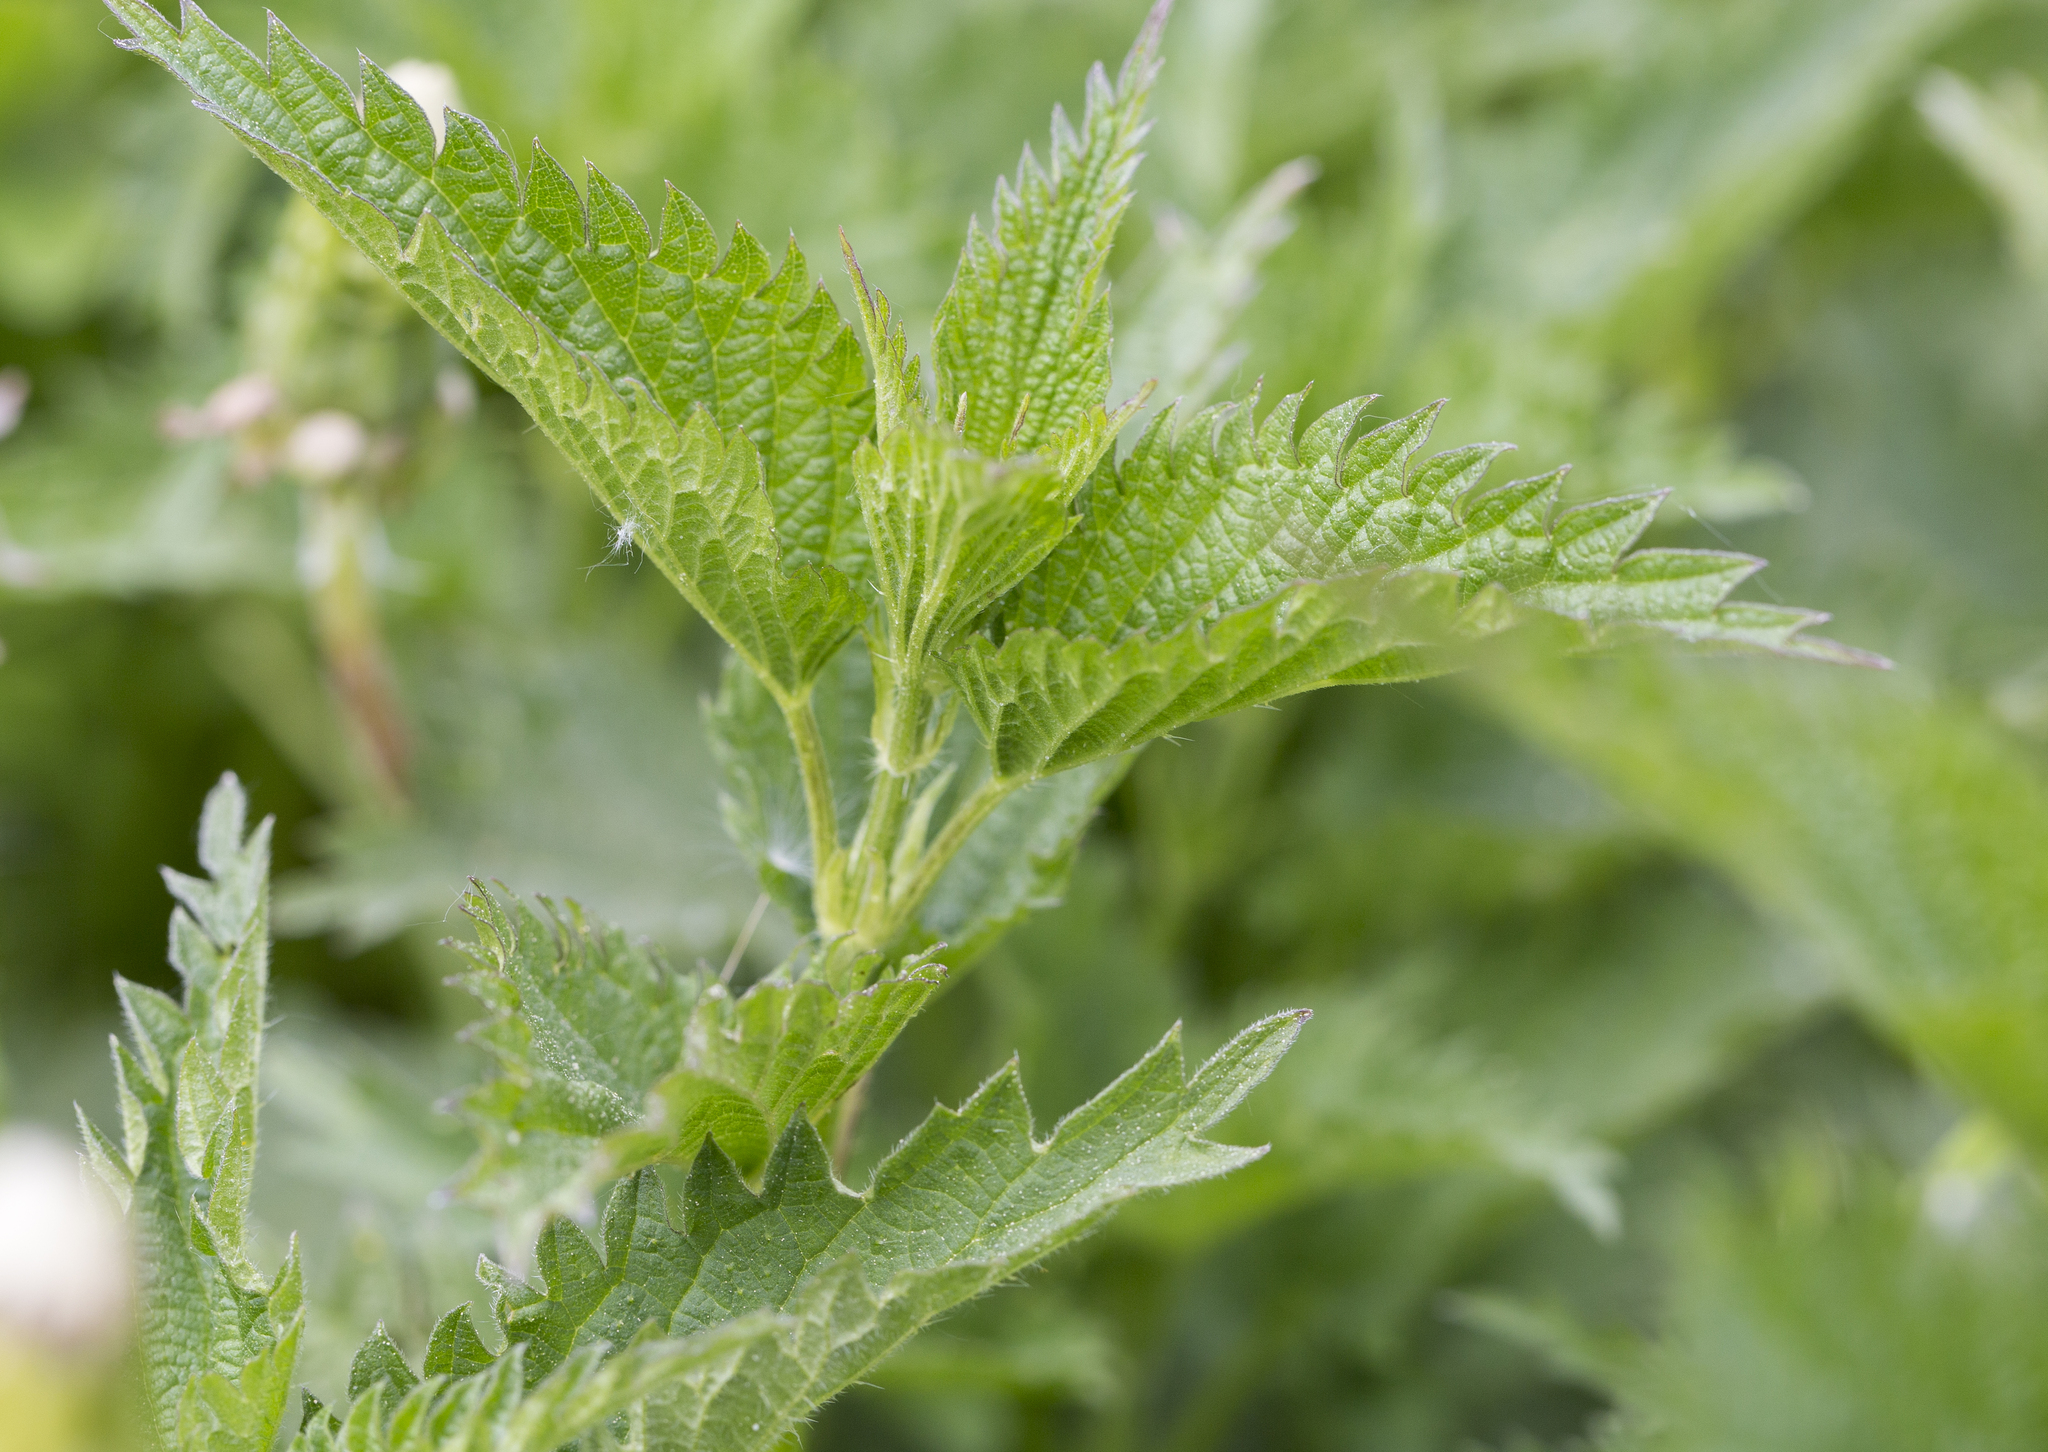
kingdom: Plantae
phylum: Tracheophyta
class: Magnoliopsida
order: Rosales
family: Urticaceae
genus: Urtica
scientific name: Urtica dioica
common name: Common nettle
